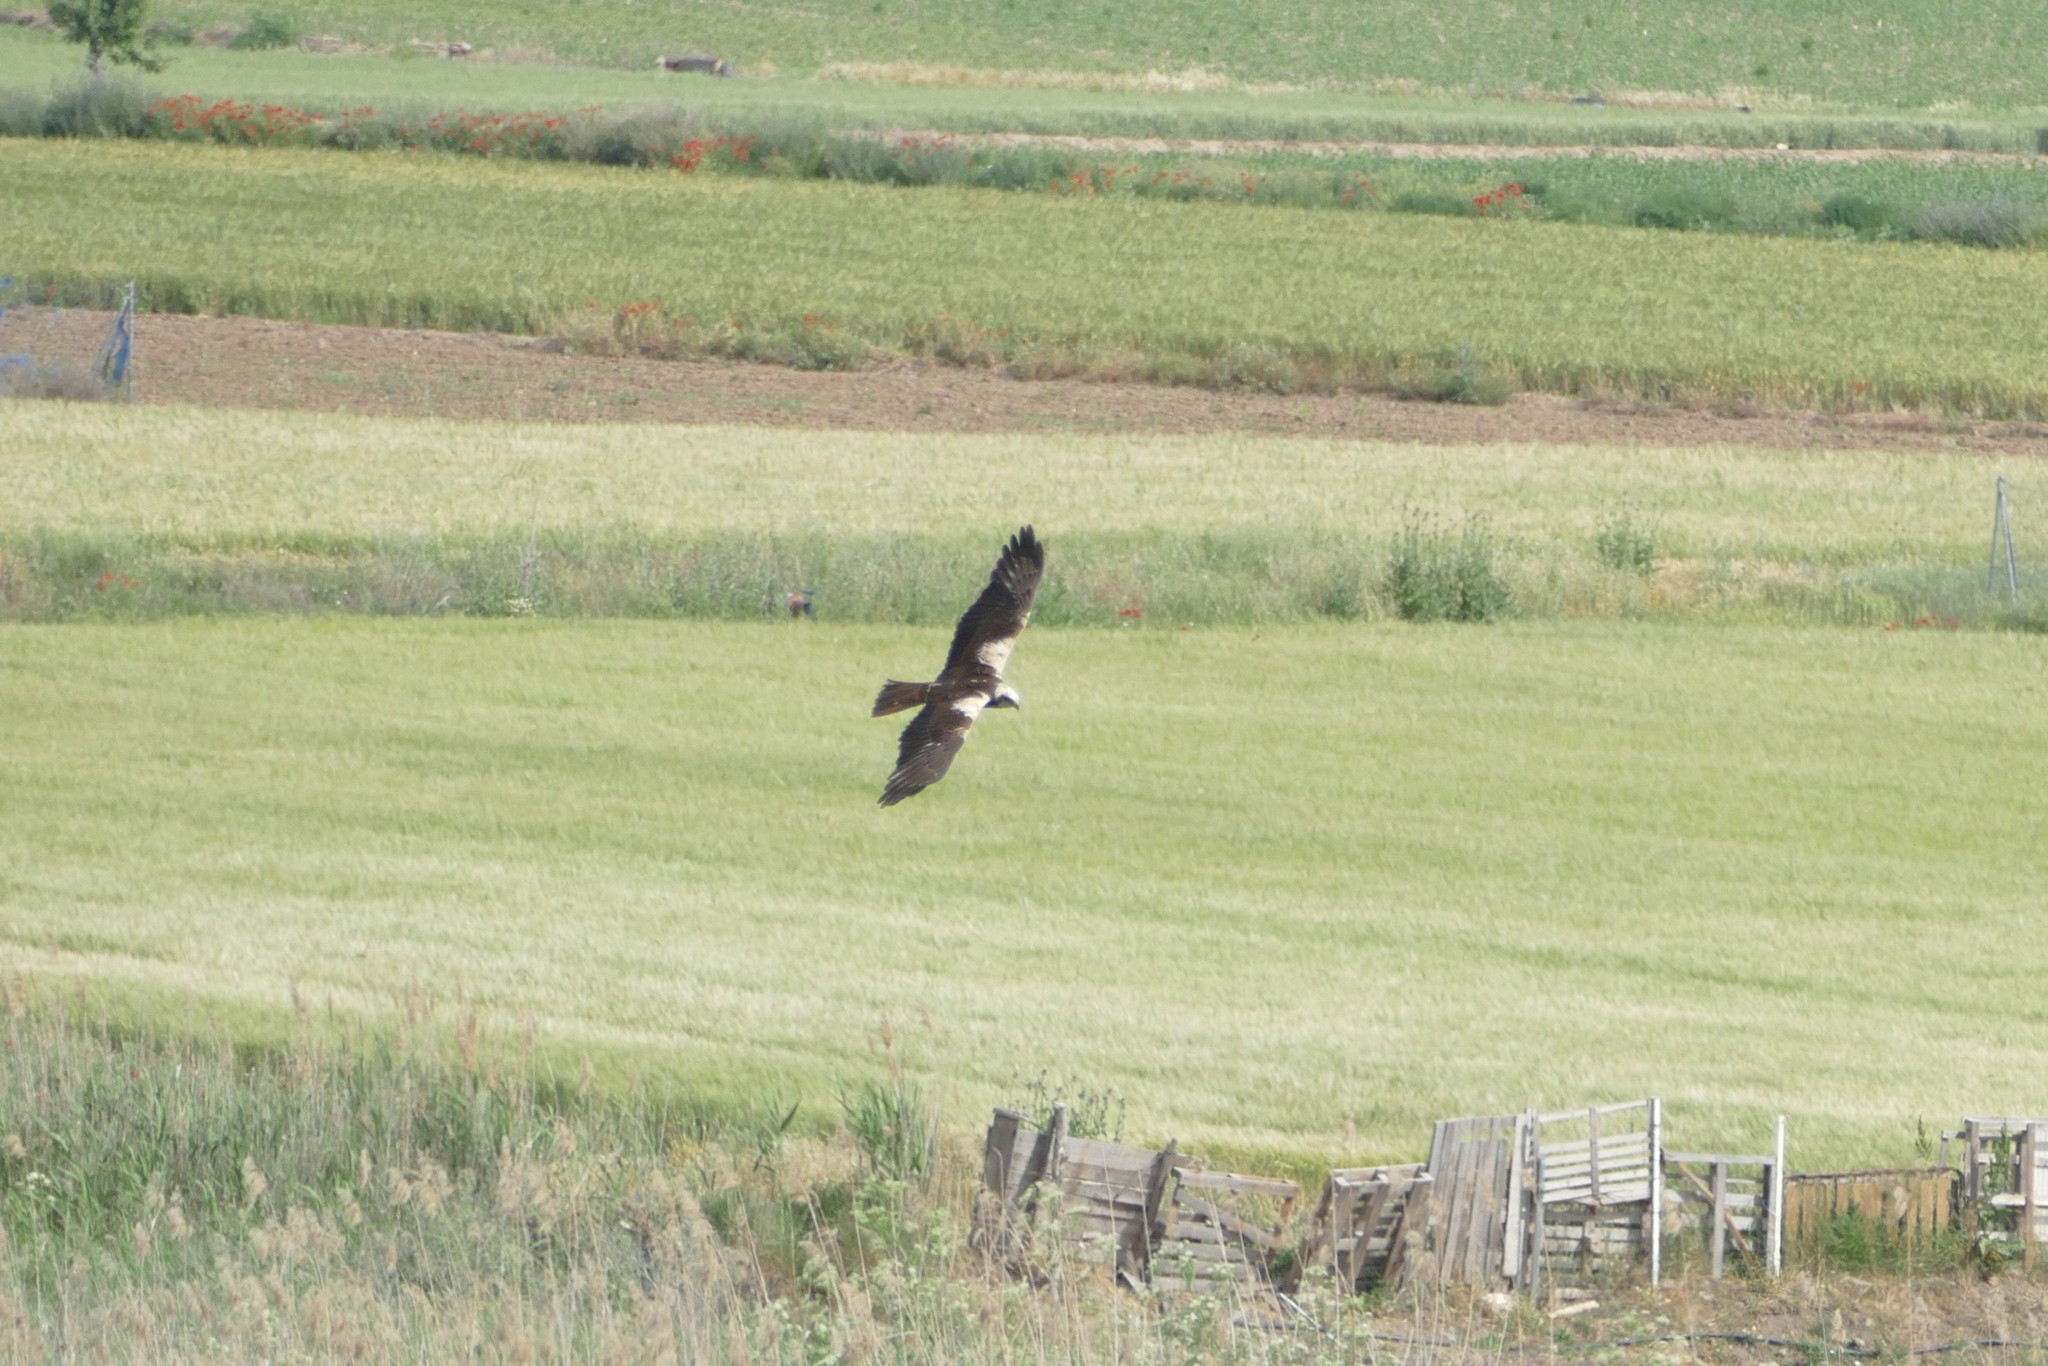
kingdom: Animalia
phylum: Chordata
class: Aves
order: Accipitriformes
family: Accipitridae
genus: Circus
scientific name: Circus aeruginosus
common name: Western marsh harrier
